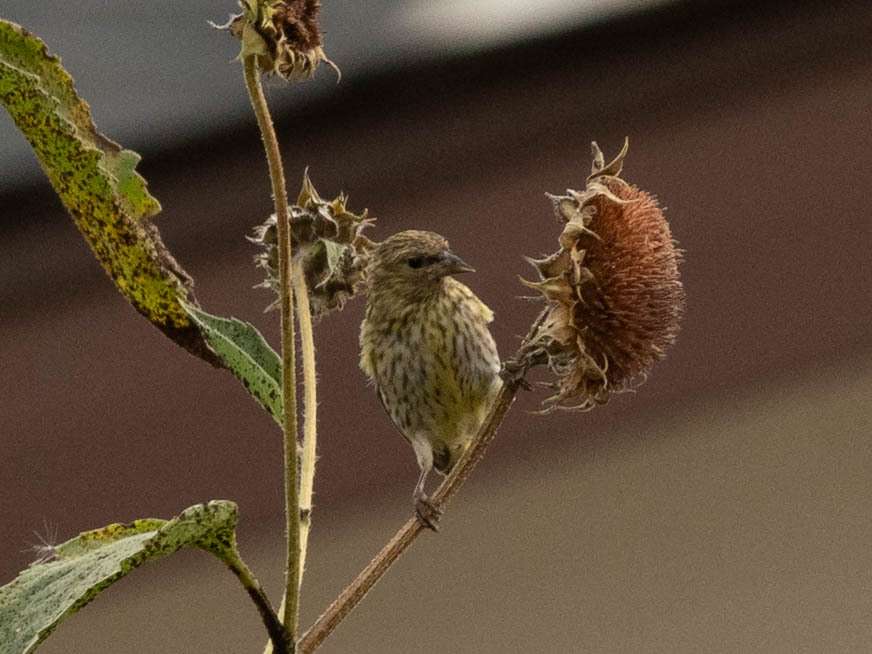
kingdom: Animalia
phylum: Chordata
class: Aves
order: Passeriformes
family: Fringillidae
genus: Spinus
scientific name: Spinus pinus
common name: Pine siskin
